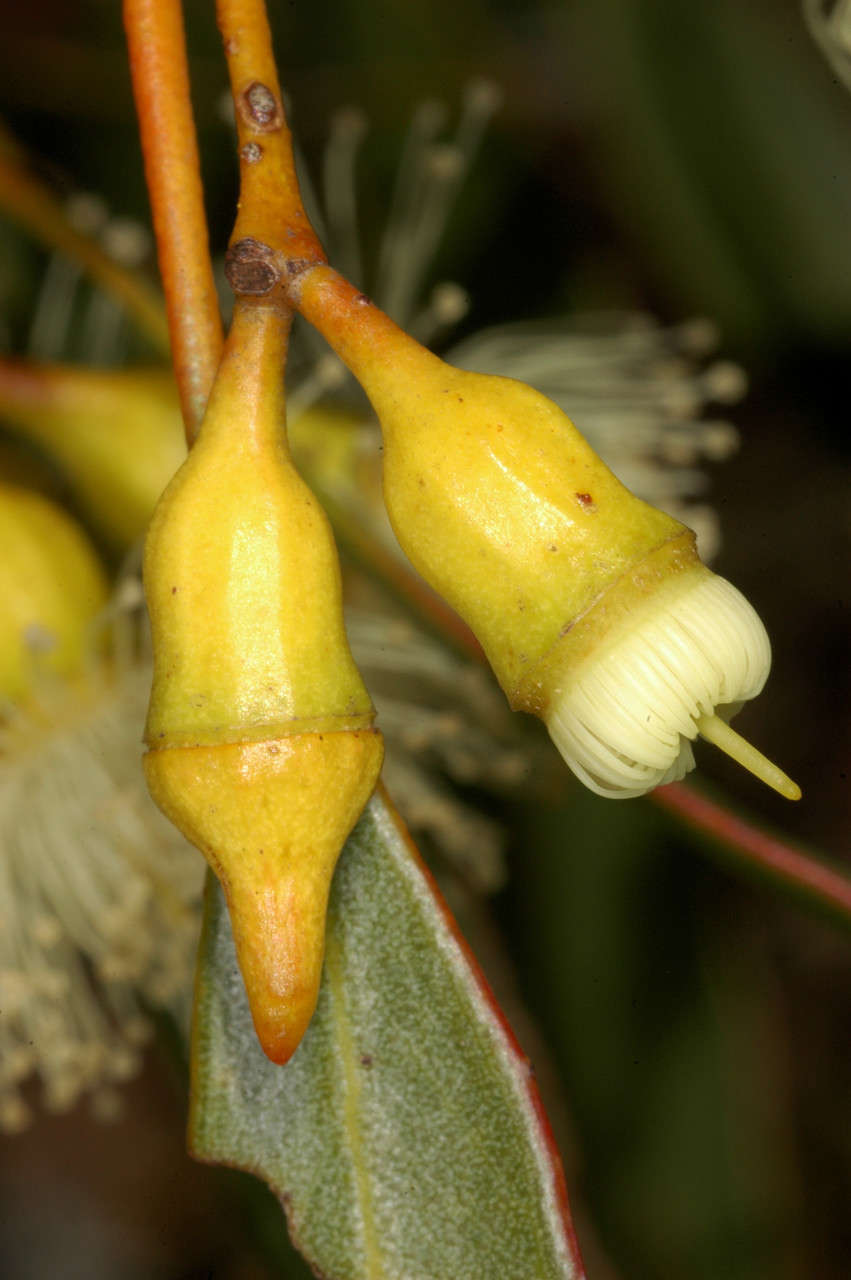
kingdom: Plantae
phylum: Tracheophyta
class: Magnoliopsida
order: Myrtales
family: Myrtaceae
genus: Eucalyptus
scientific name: Eucalyptus incrassata
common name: Ridge-fruit mallee
